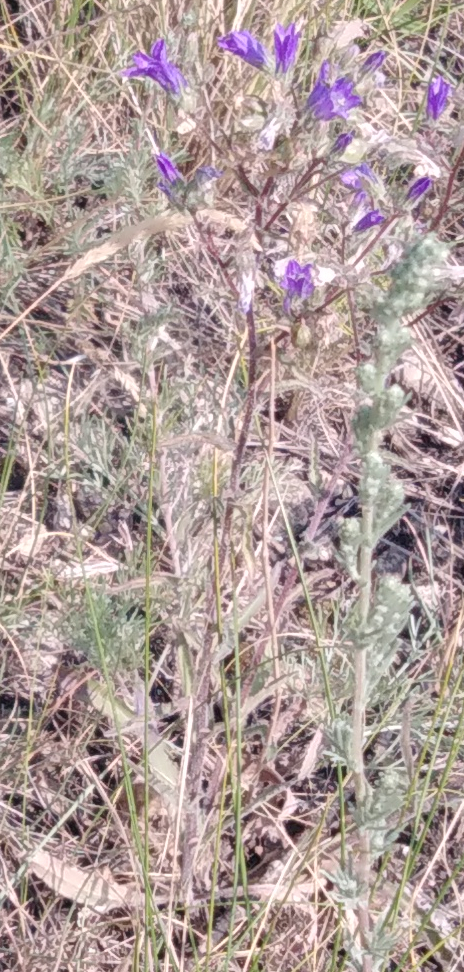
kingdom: Plantae
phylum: Tracheophyta
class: Magnoliopsida
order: Asterales
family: Campanulaceae
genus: Campanula
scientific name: Campanula sibirica
